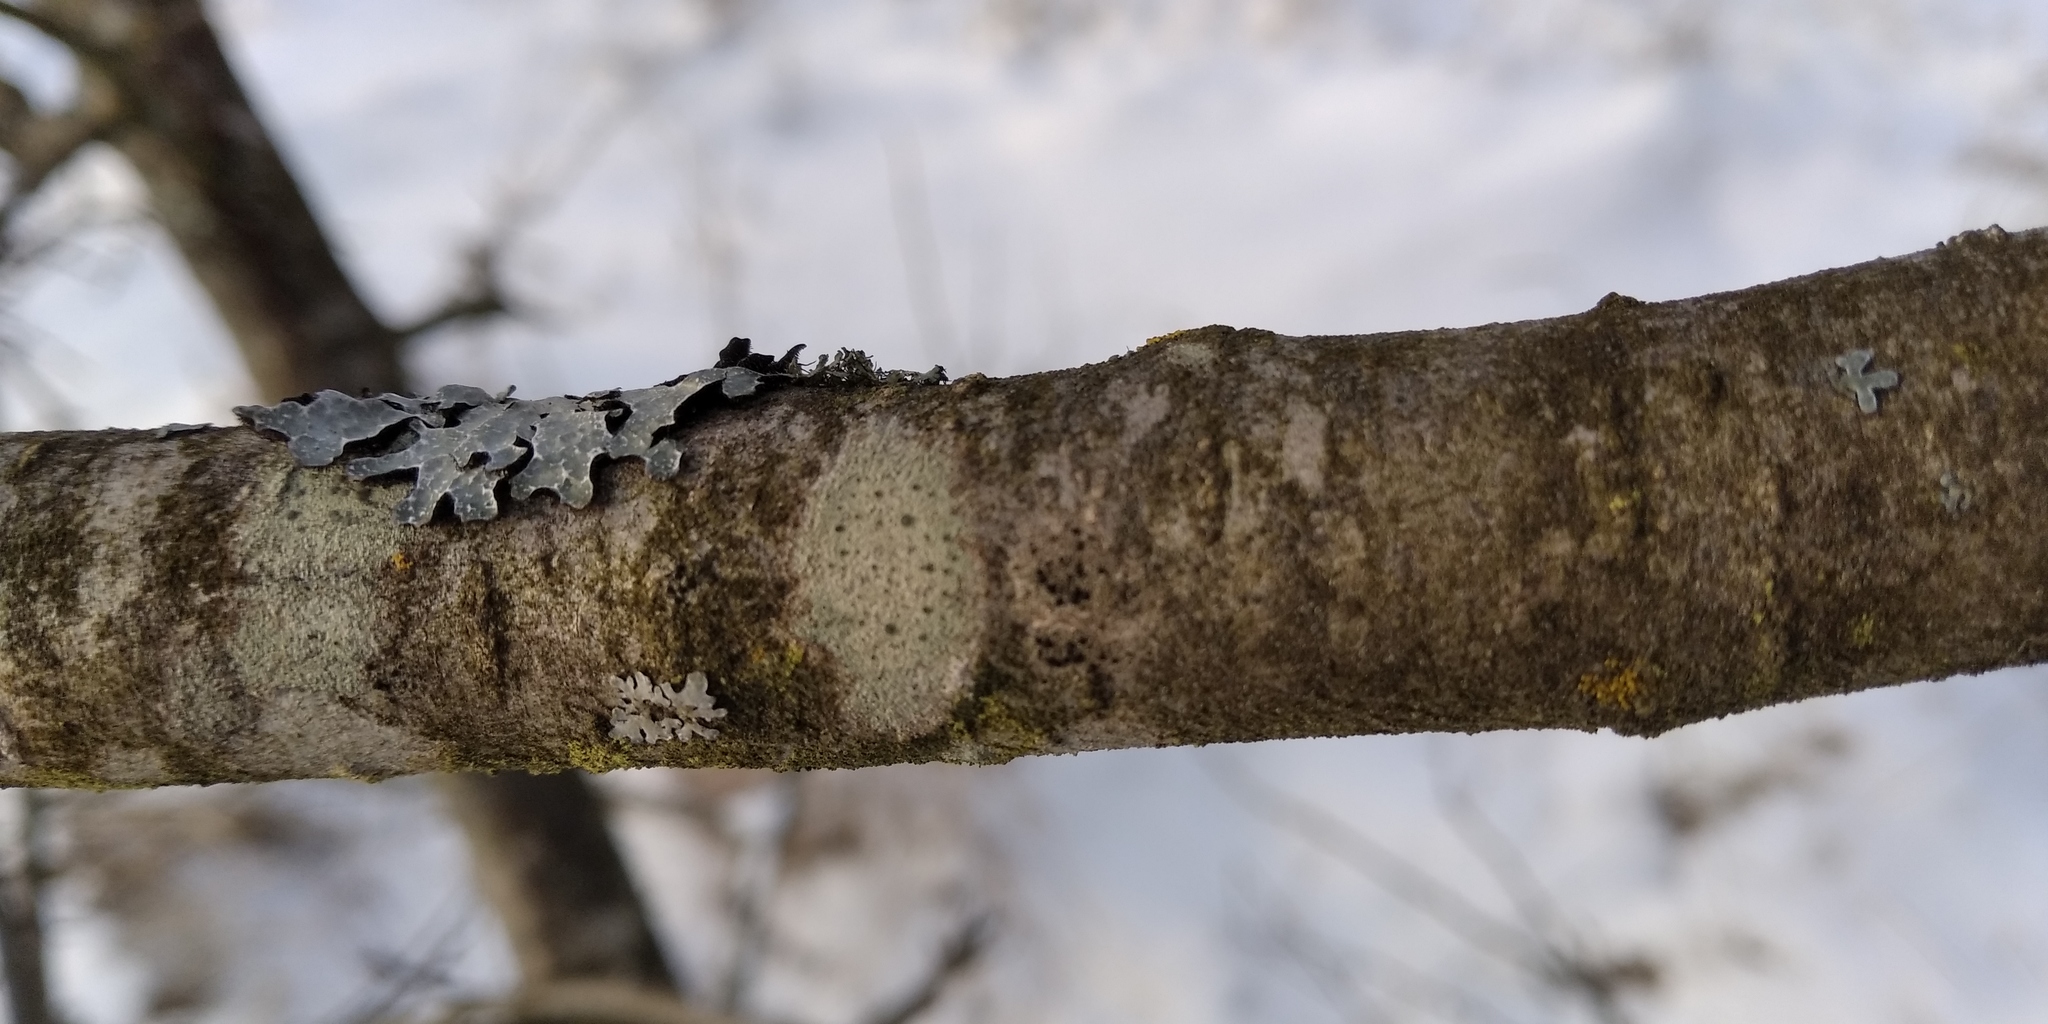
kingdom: Fungi
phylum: Ascomycota
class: Lecanoromycetes
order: Lecanorales
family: Lecanoraceae
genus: Lecidella
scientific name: Lecidella elaeochroma
